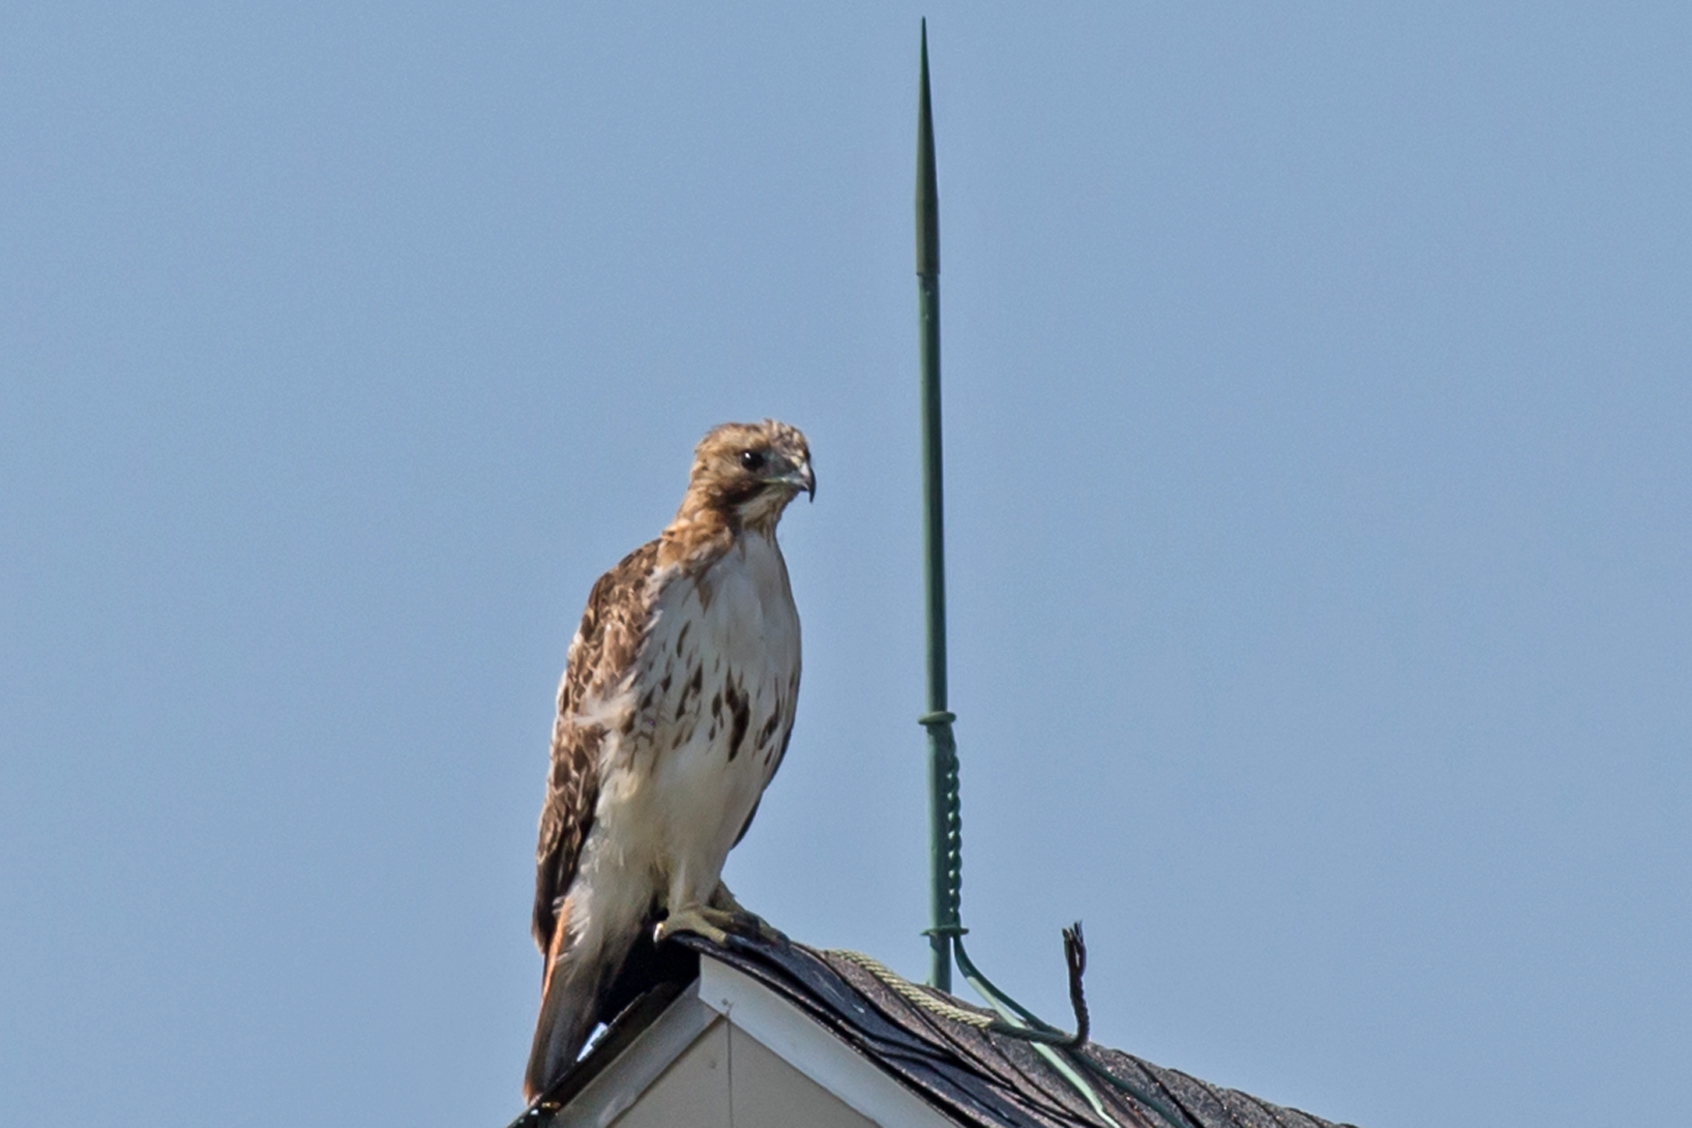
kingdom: Animalia
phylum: Chordata
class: Aves
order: Accipitriformes
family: Accipitridae
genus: Buteo
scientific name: Buteo jamaicensis
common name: Red-tailed hawk
